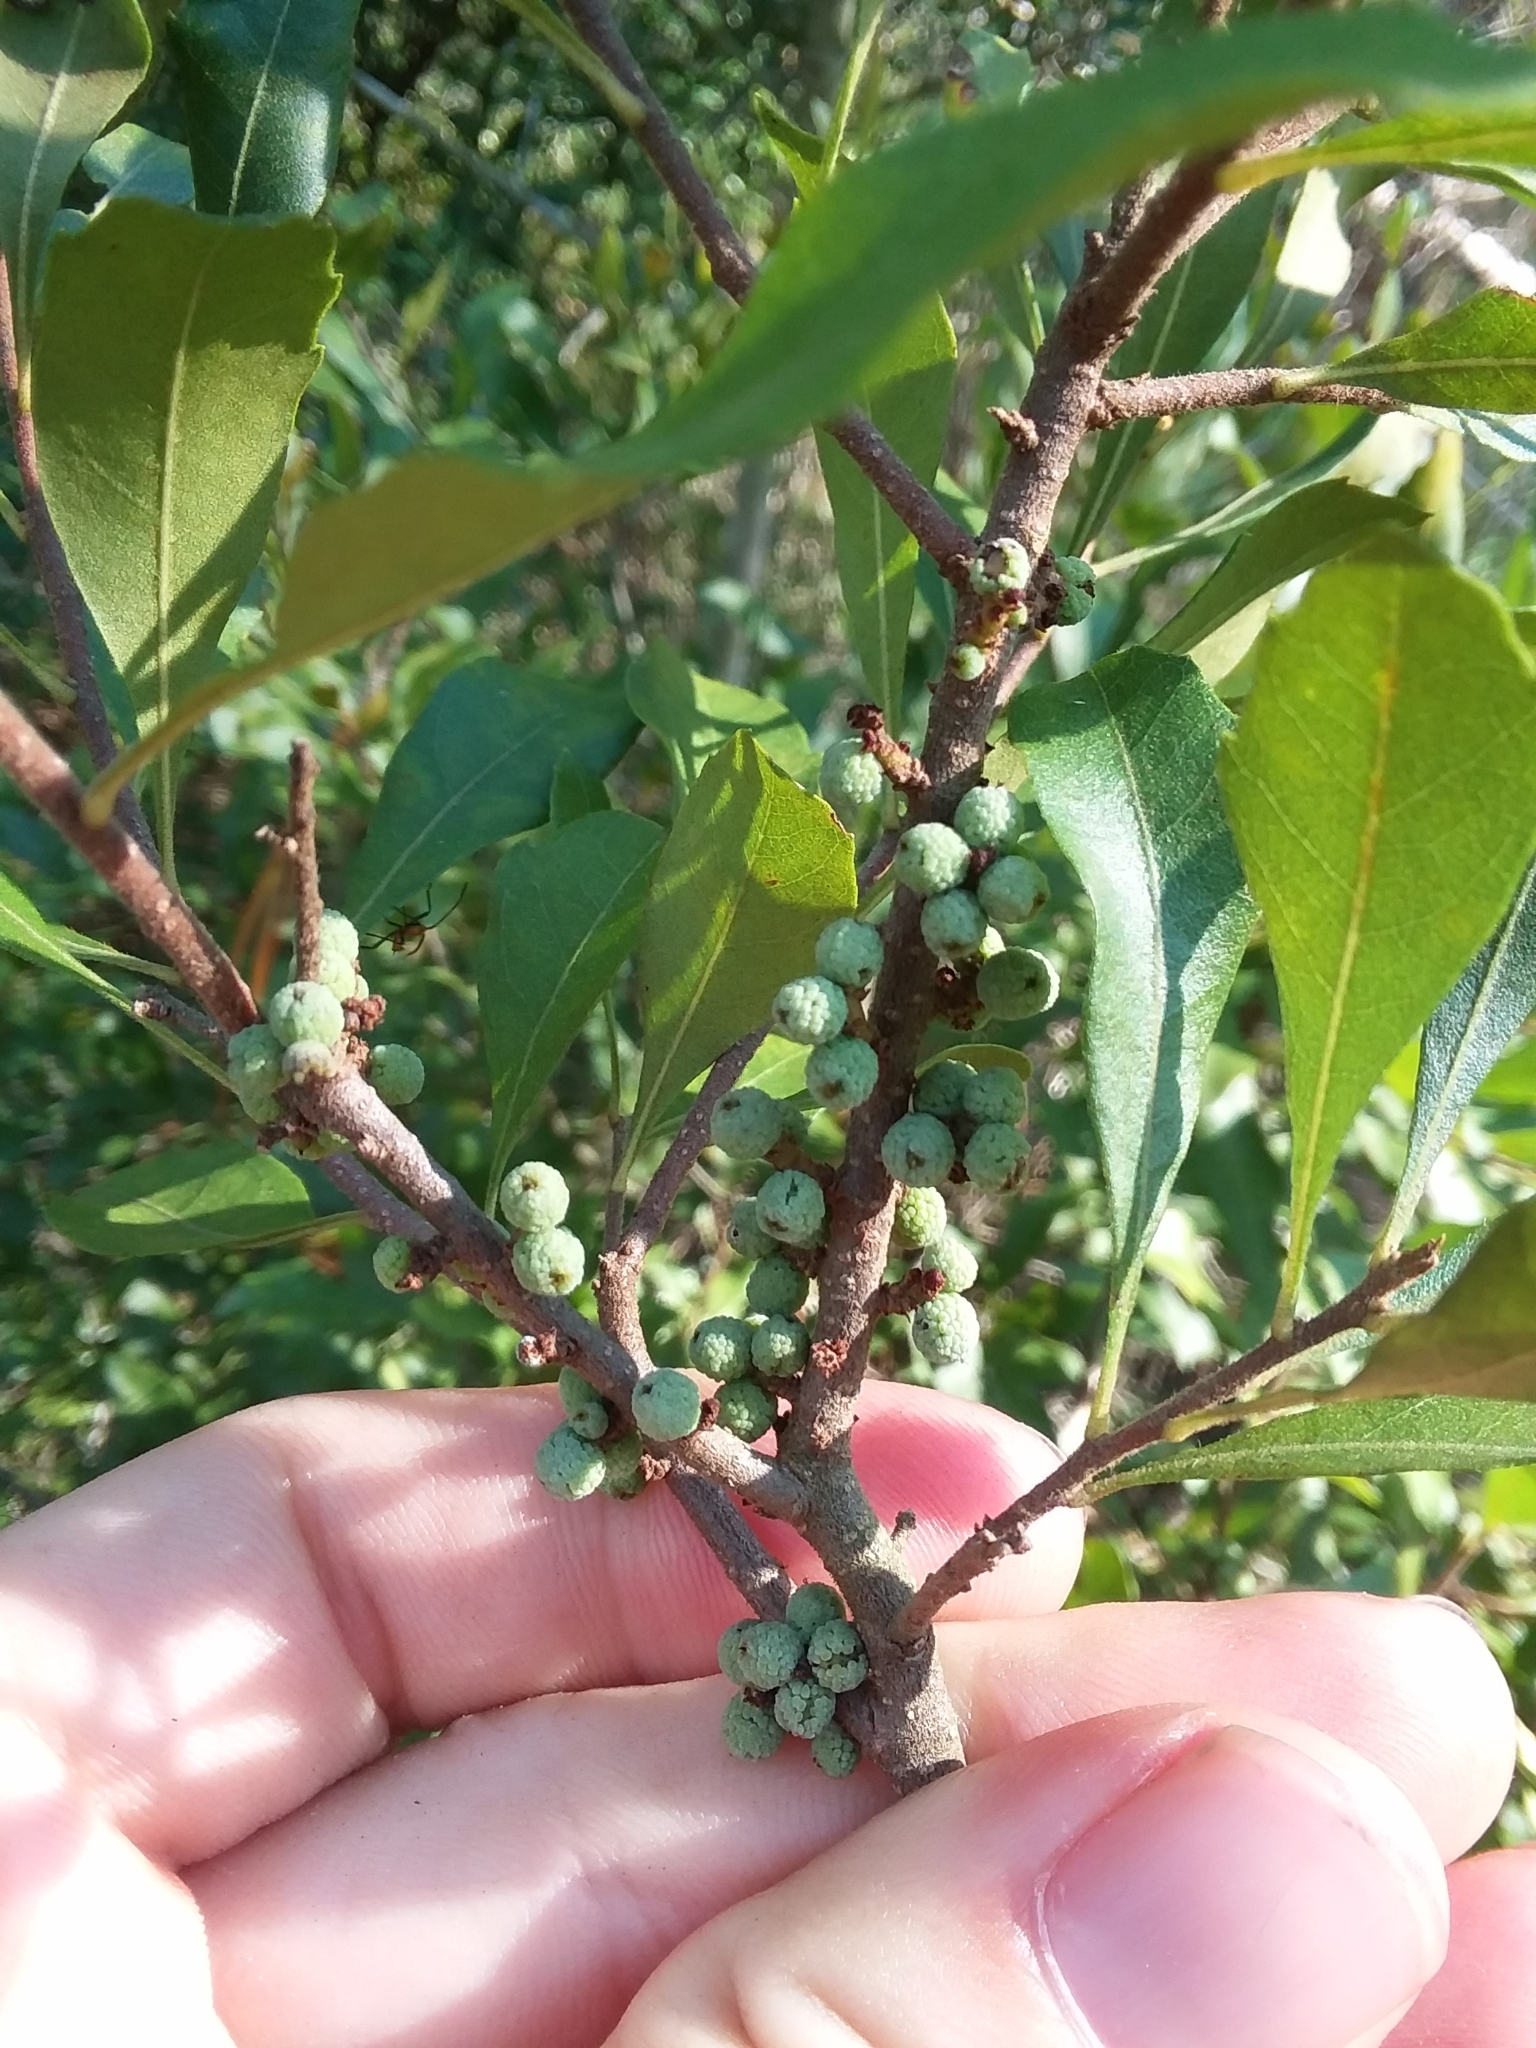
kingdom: Plantae
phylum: Tracheophyta
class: Magnoliopsida
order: Fagales
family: Myricaceae
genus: Morella
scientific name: Morella cerifera
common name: Wax myrtle
